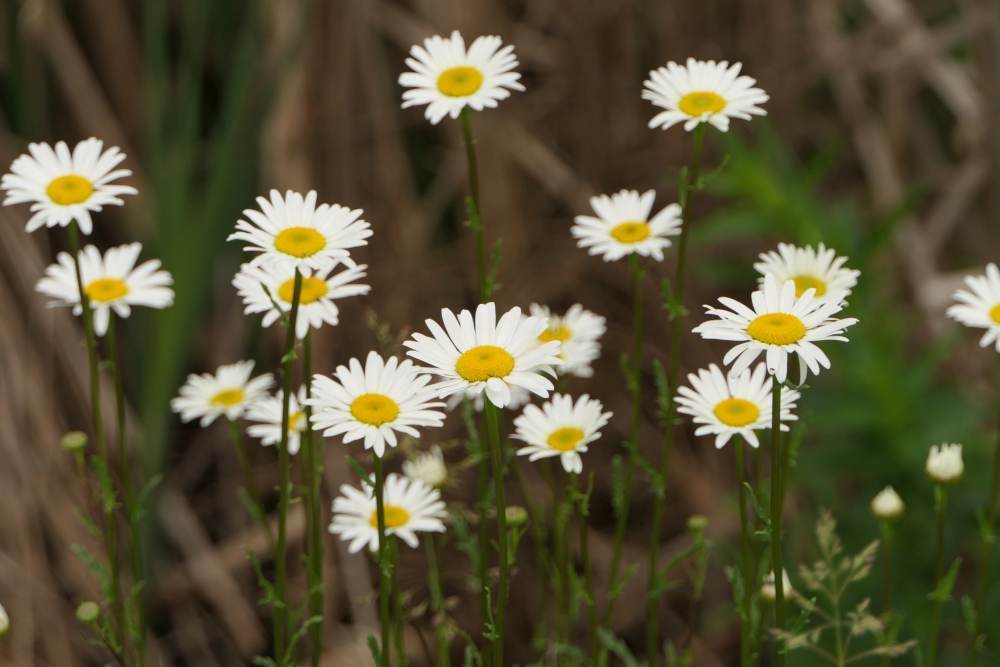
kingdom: Plantae
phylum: Tracheophyta
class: Magnoliopsida
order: Asterales
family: Asteraceae
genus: Leucanthemum
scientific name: Leucanthemum vulgare
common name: Oxeye daisy
